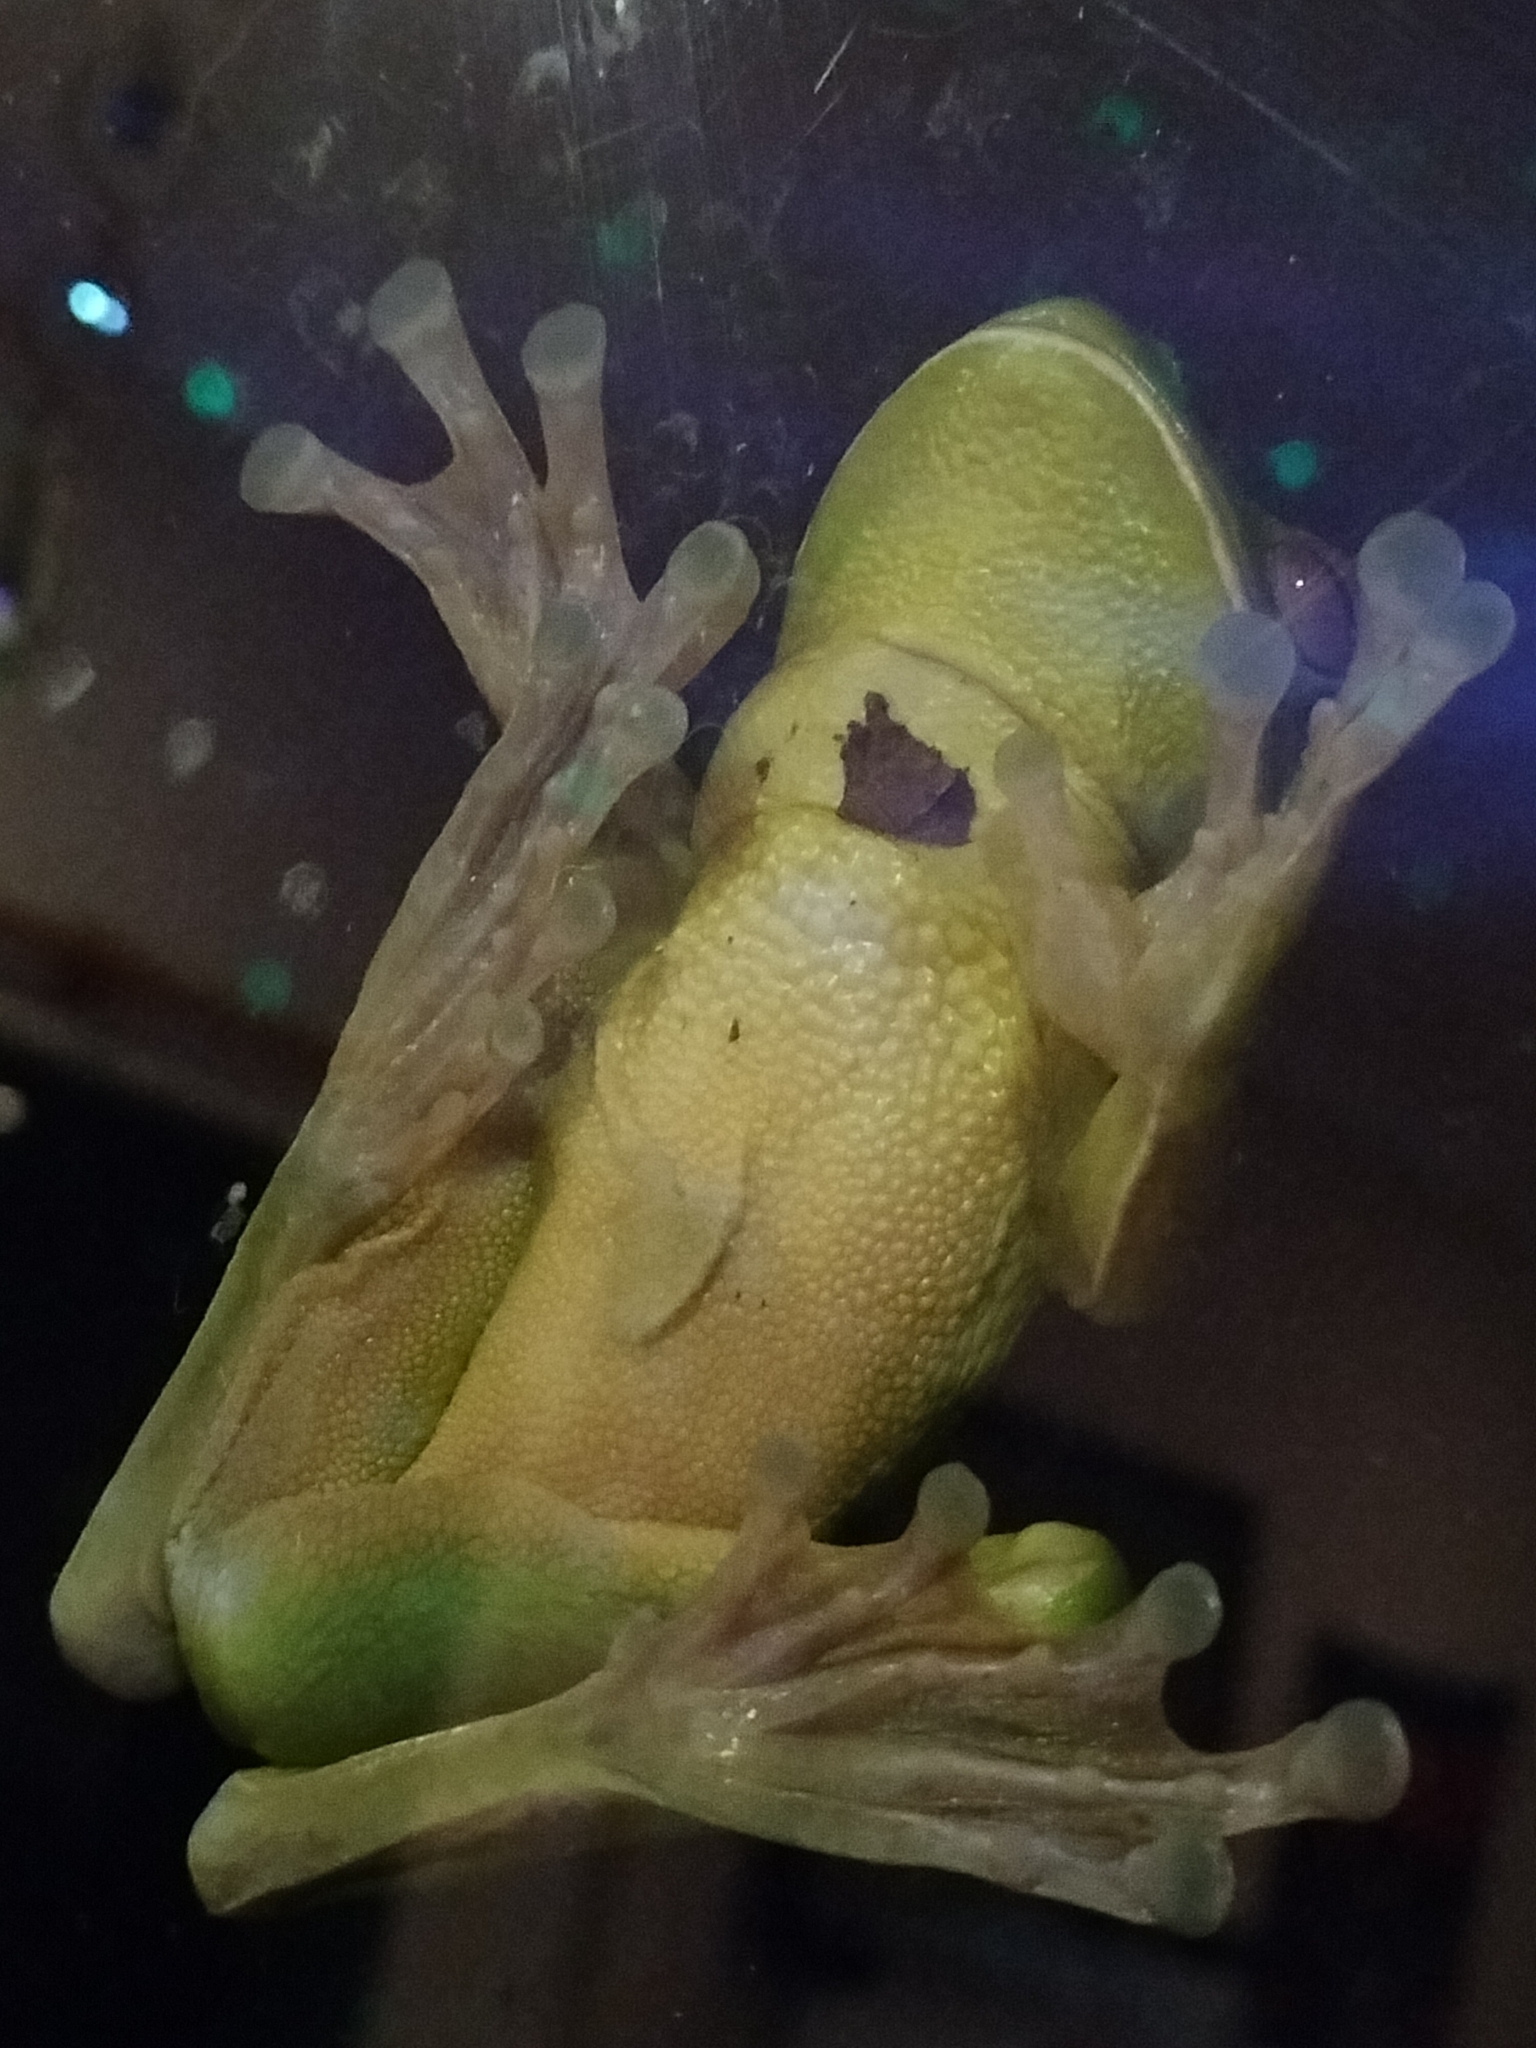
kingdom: Animalia
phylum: Chordata
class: Amphibia
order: Anura
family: Pelodryadidae
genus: Nyctimystes
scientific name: Nyctimystes infrafrenatus
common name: Australian giant treefrog
